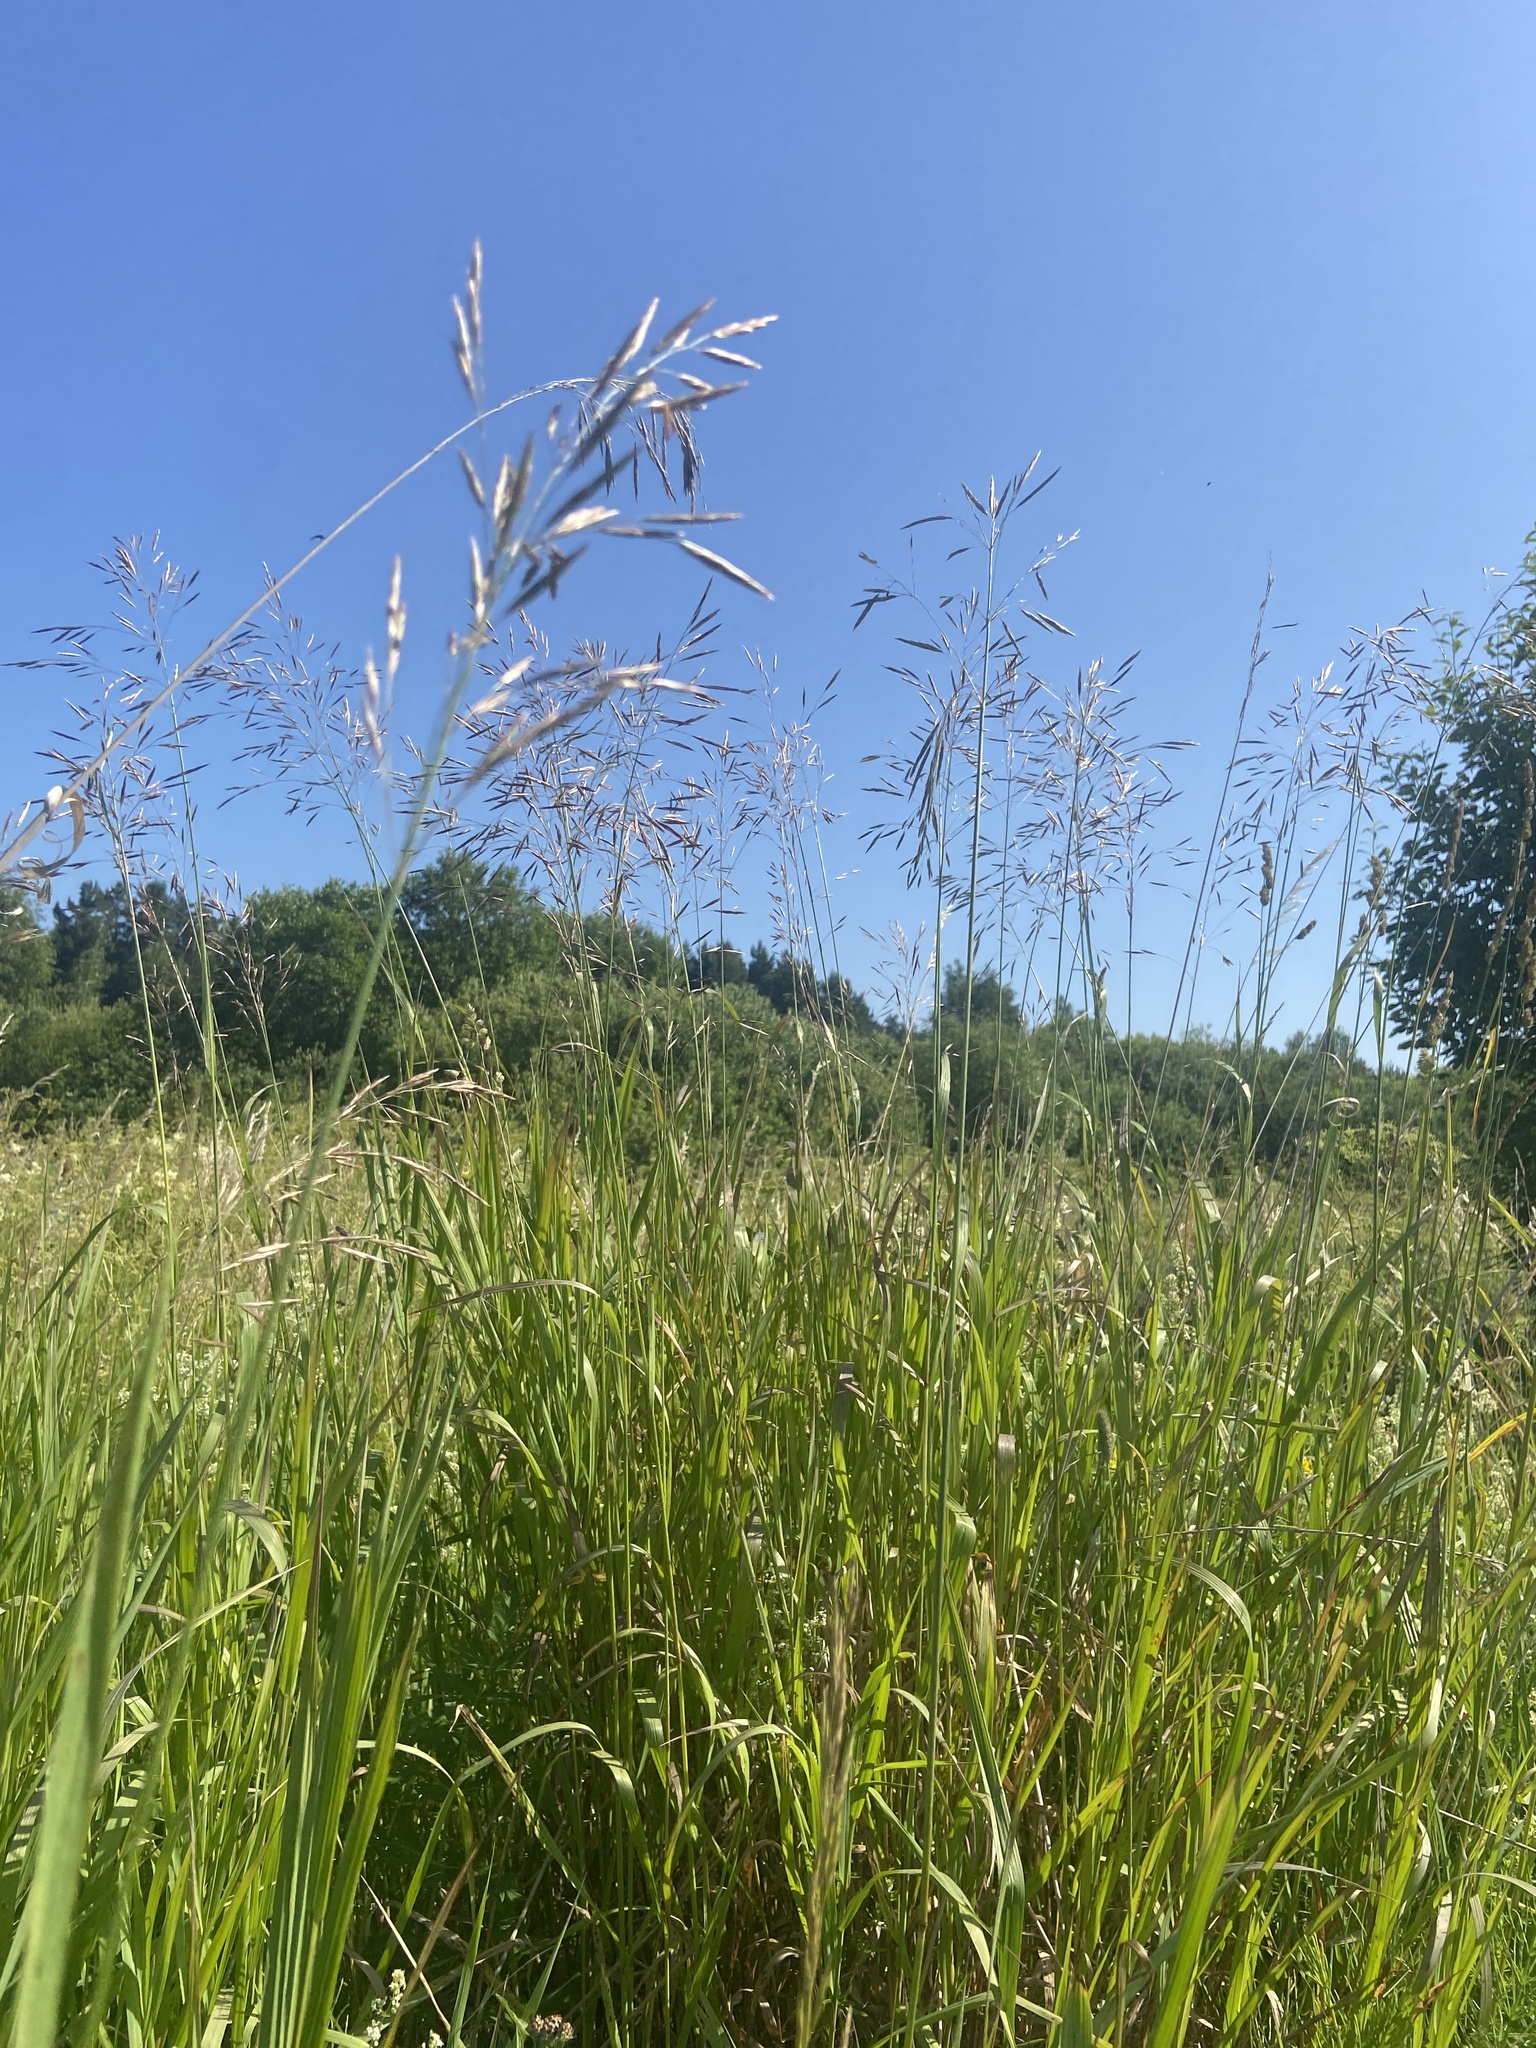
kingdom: Plantae
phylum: Tracheophyta
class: Liliopsida
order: Poales
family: Poaceae
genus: Bromus
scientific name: Bromus inermis
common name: Smooth brome
